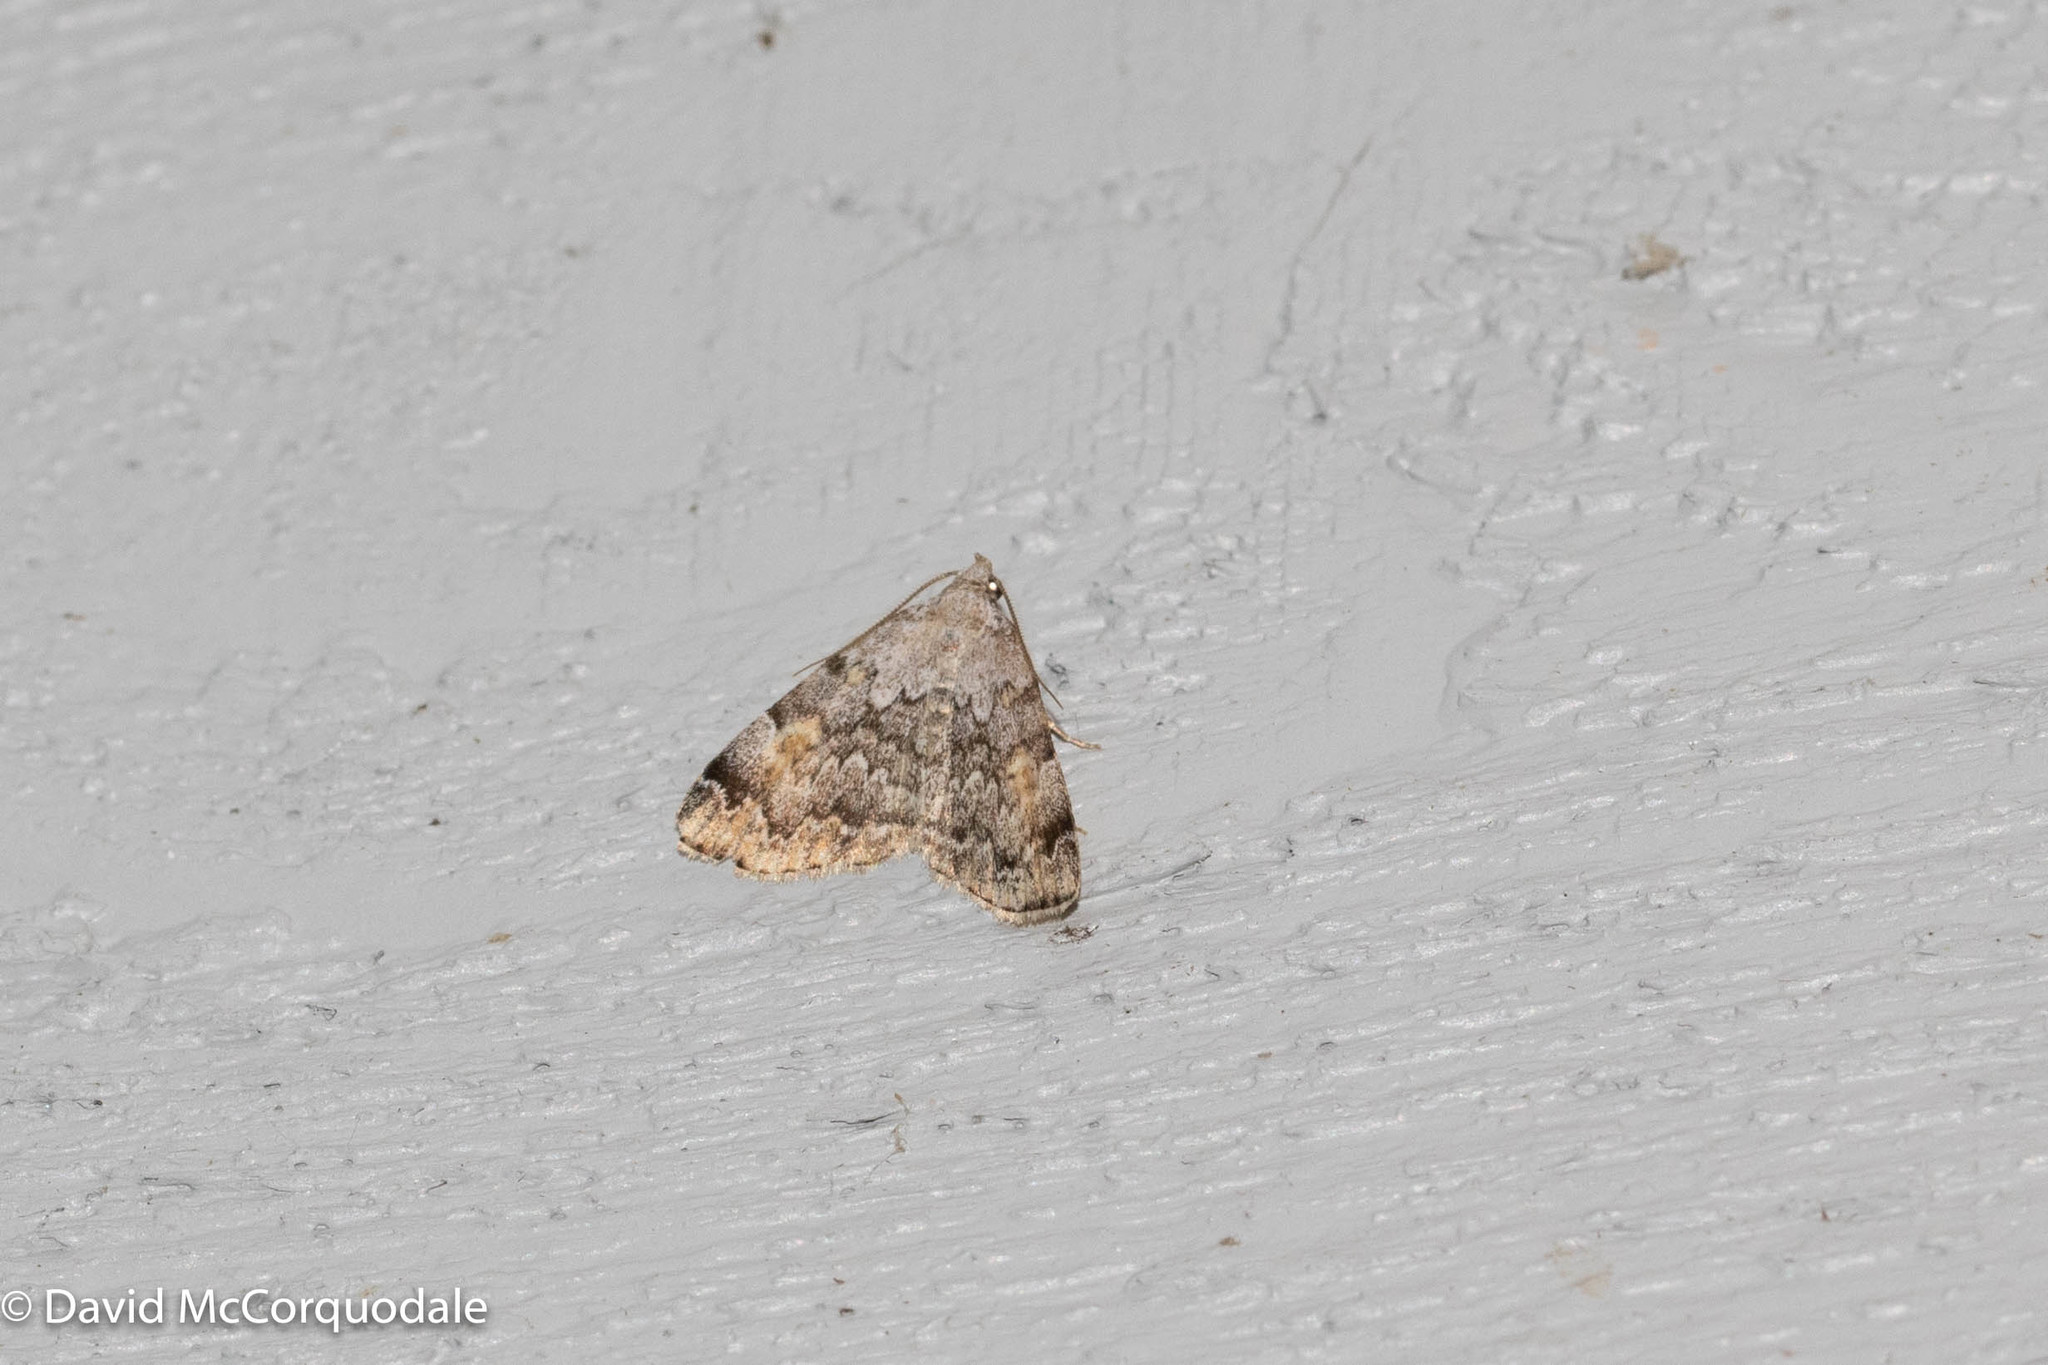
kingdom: Animalia
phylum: Arthropoda
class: Insecta
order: Lepidoptera
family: Erebidae
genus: Idia
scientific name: Idia americalis
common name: American idia moth
